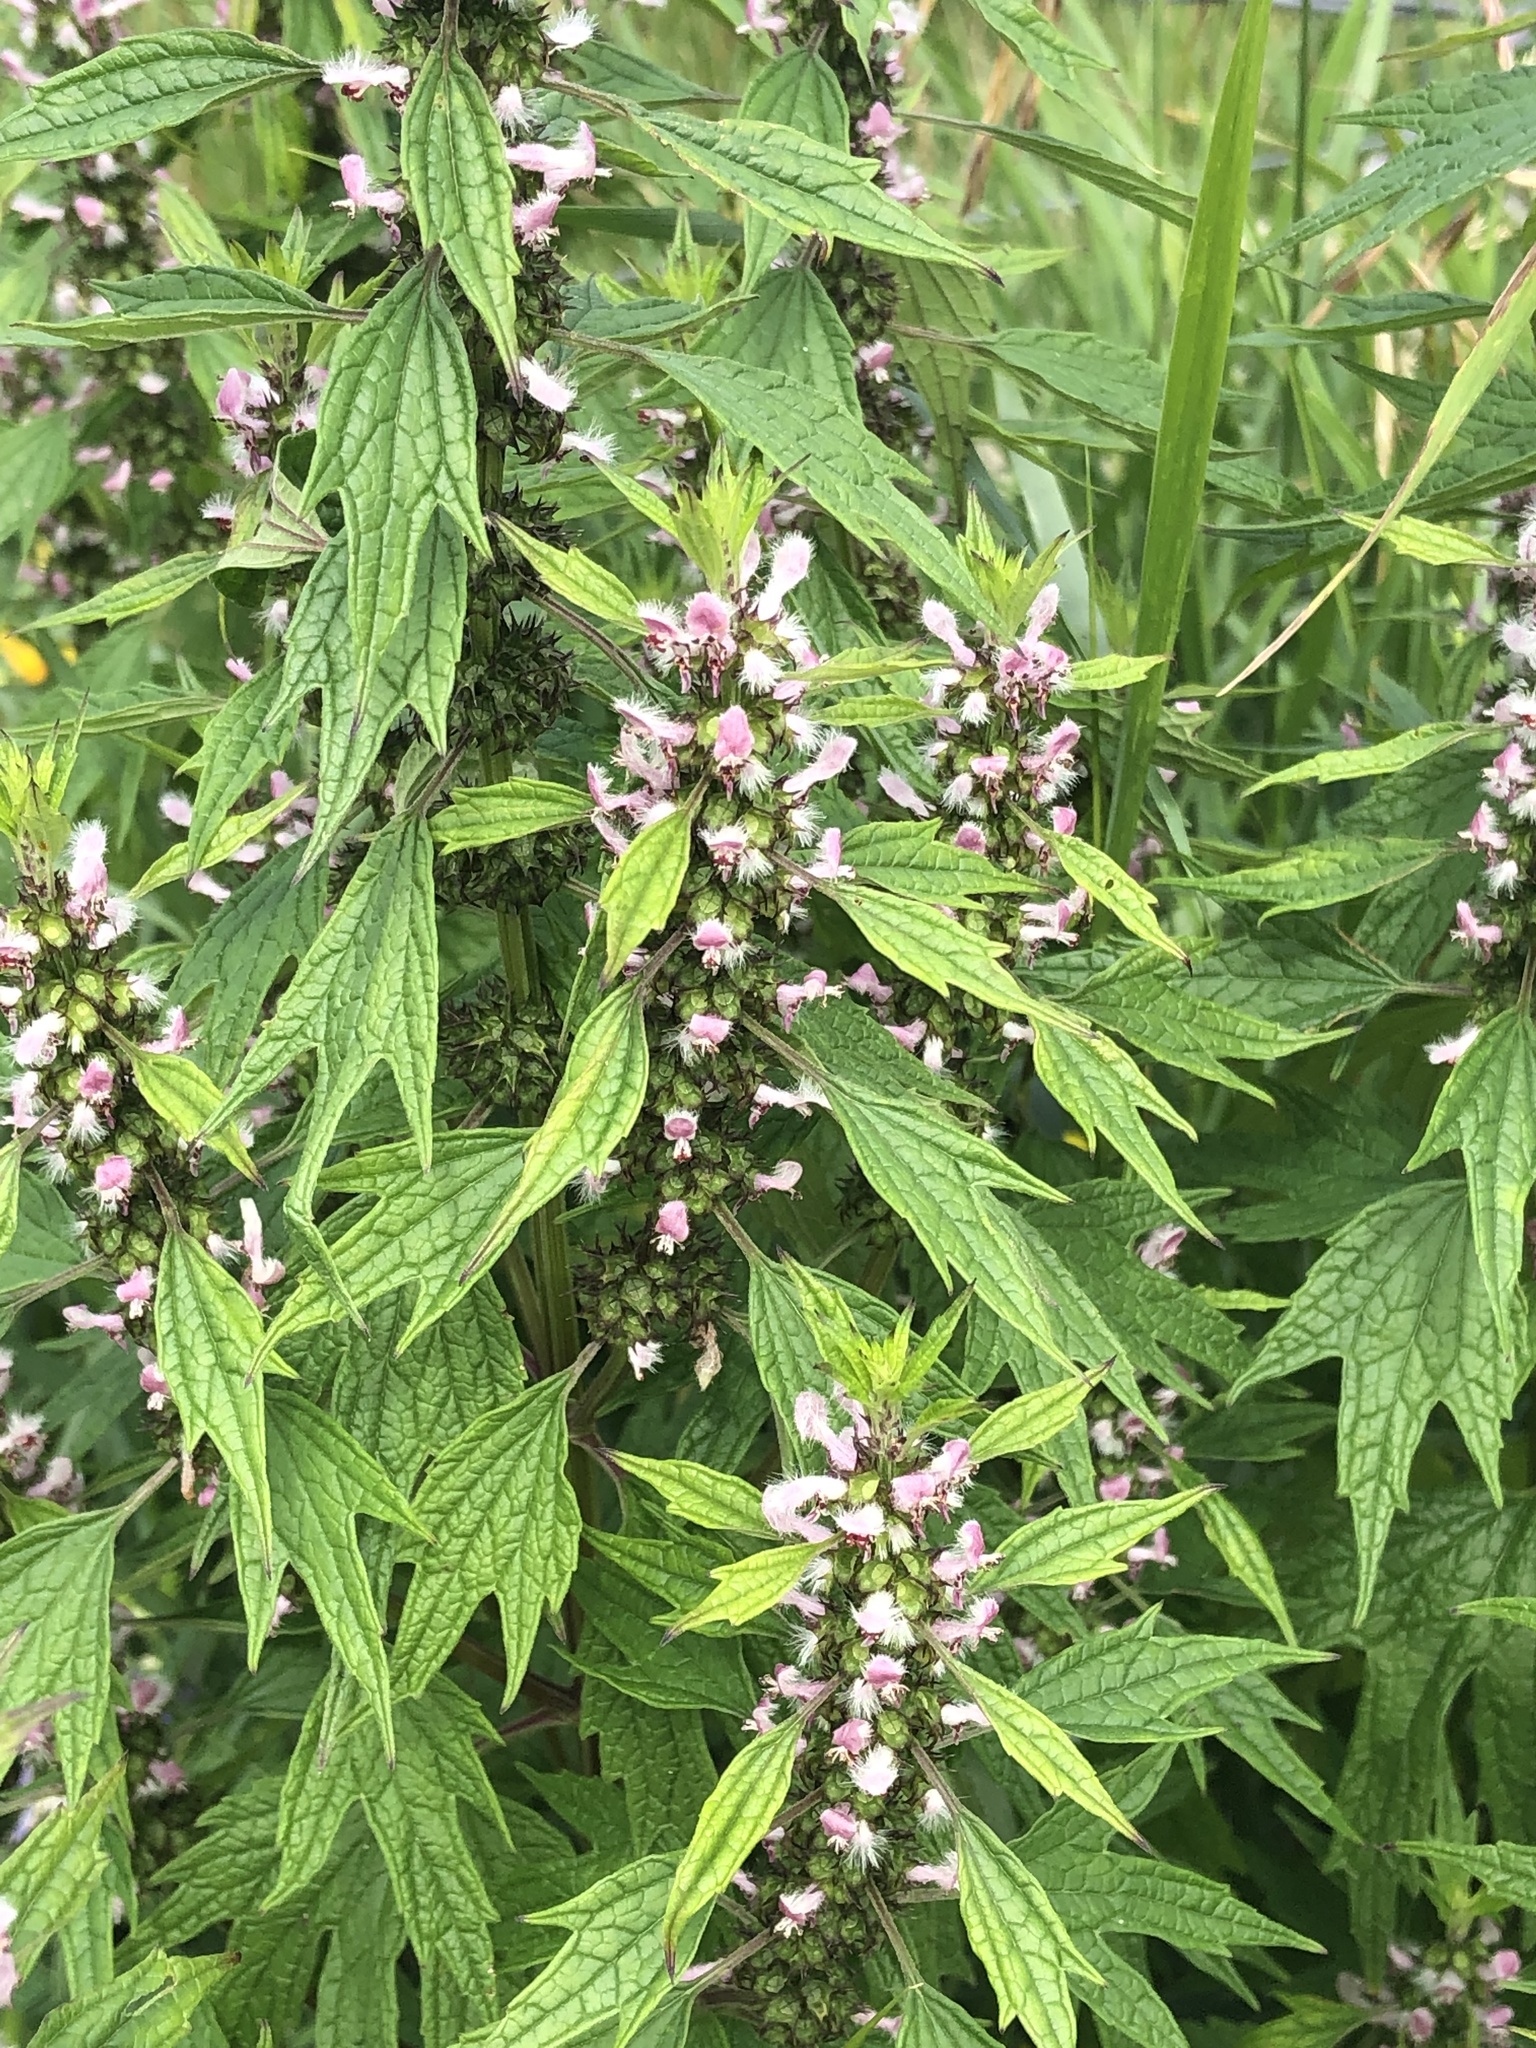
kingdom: Plantae
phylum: Tracheophyta
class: Magnoliopsida
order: Lamiales
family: Lamiaceae
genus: Leonurus
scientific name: Leonurus cardiaca
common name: Motherwort
